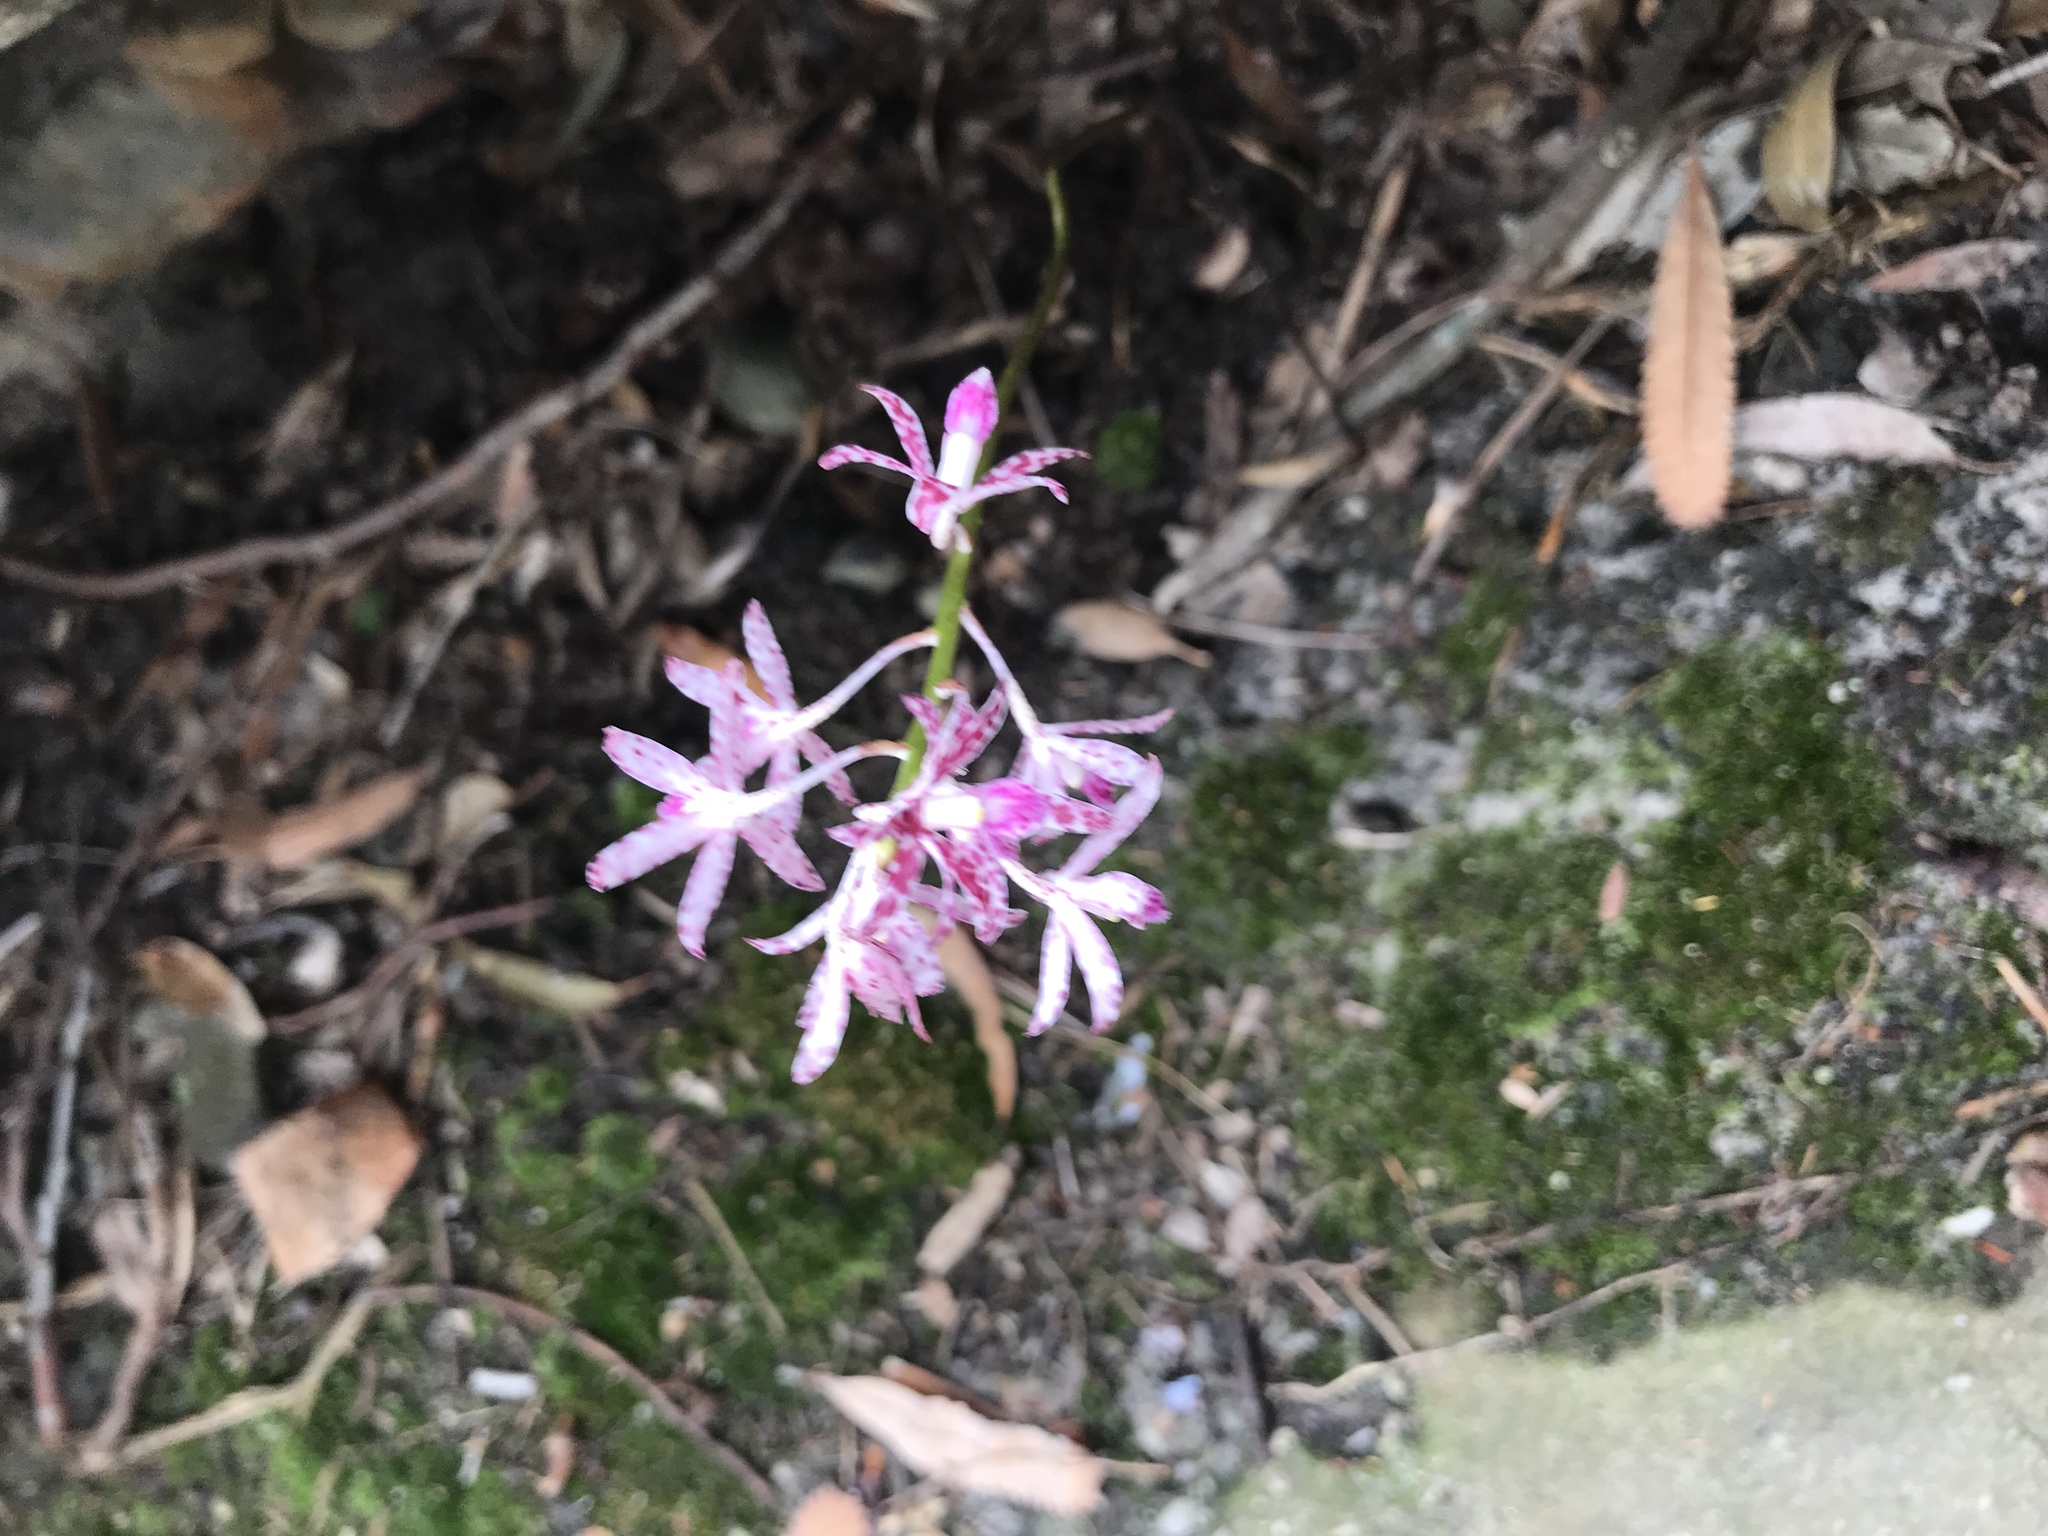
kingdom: Plantae
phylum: Tracheophyta
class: Liliopsida
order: Asparagales
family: Orchidaceae
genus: Dipodium
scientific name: Dipodium variegatum
